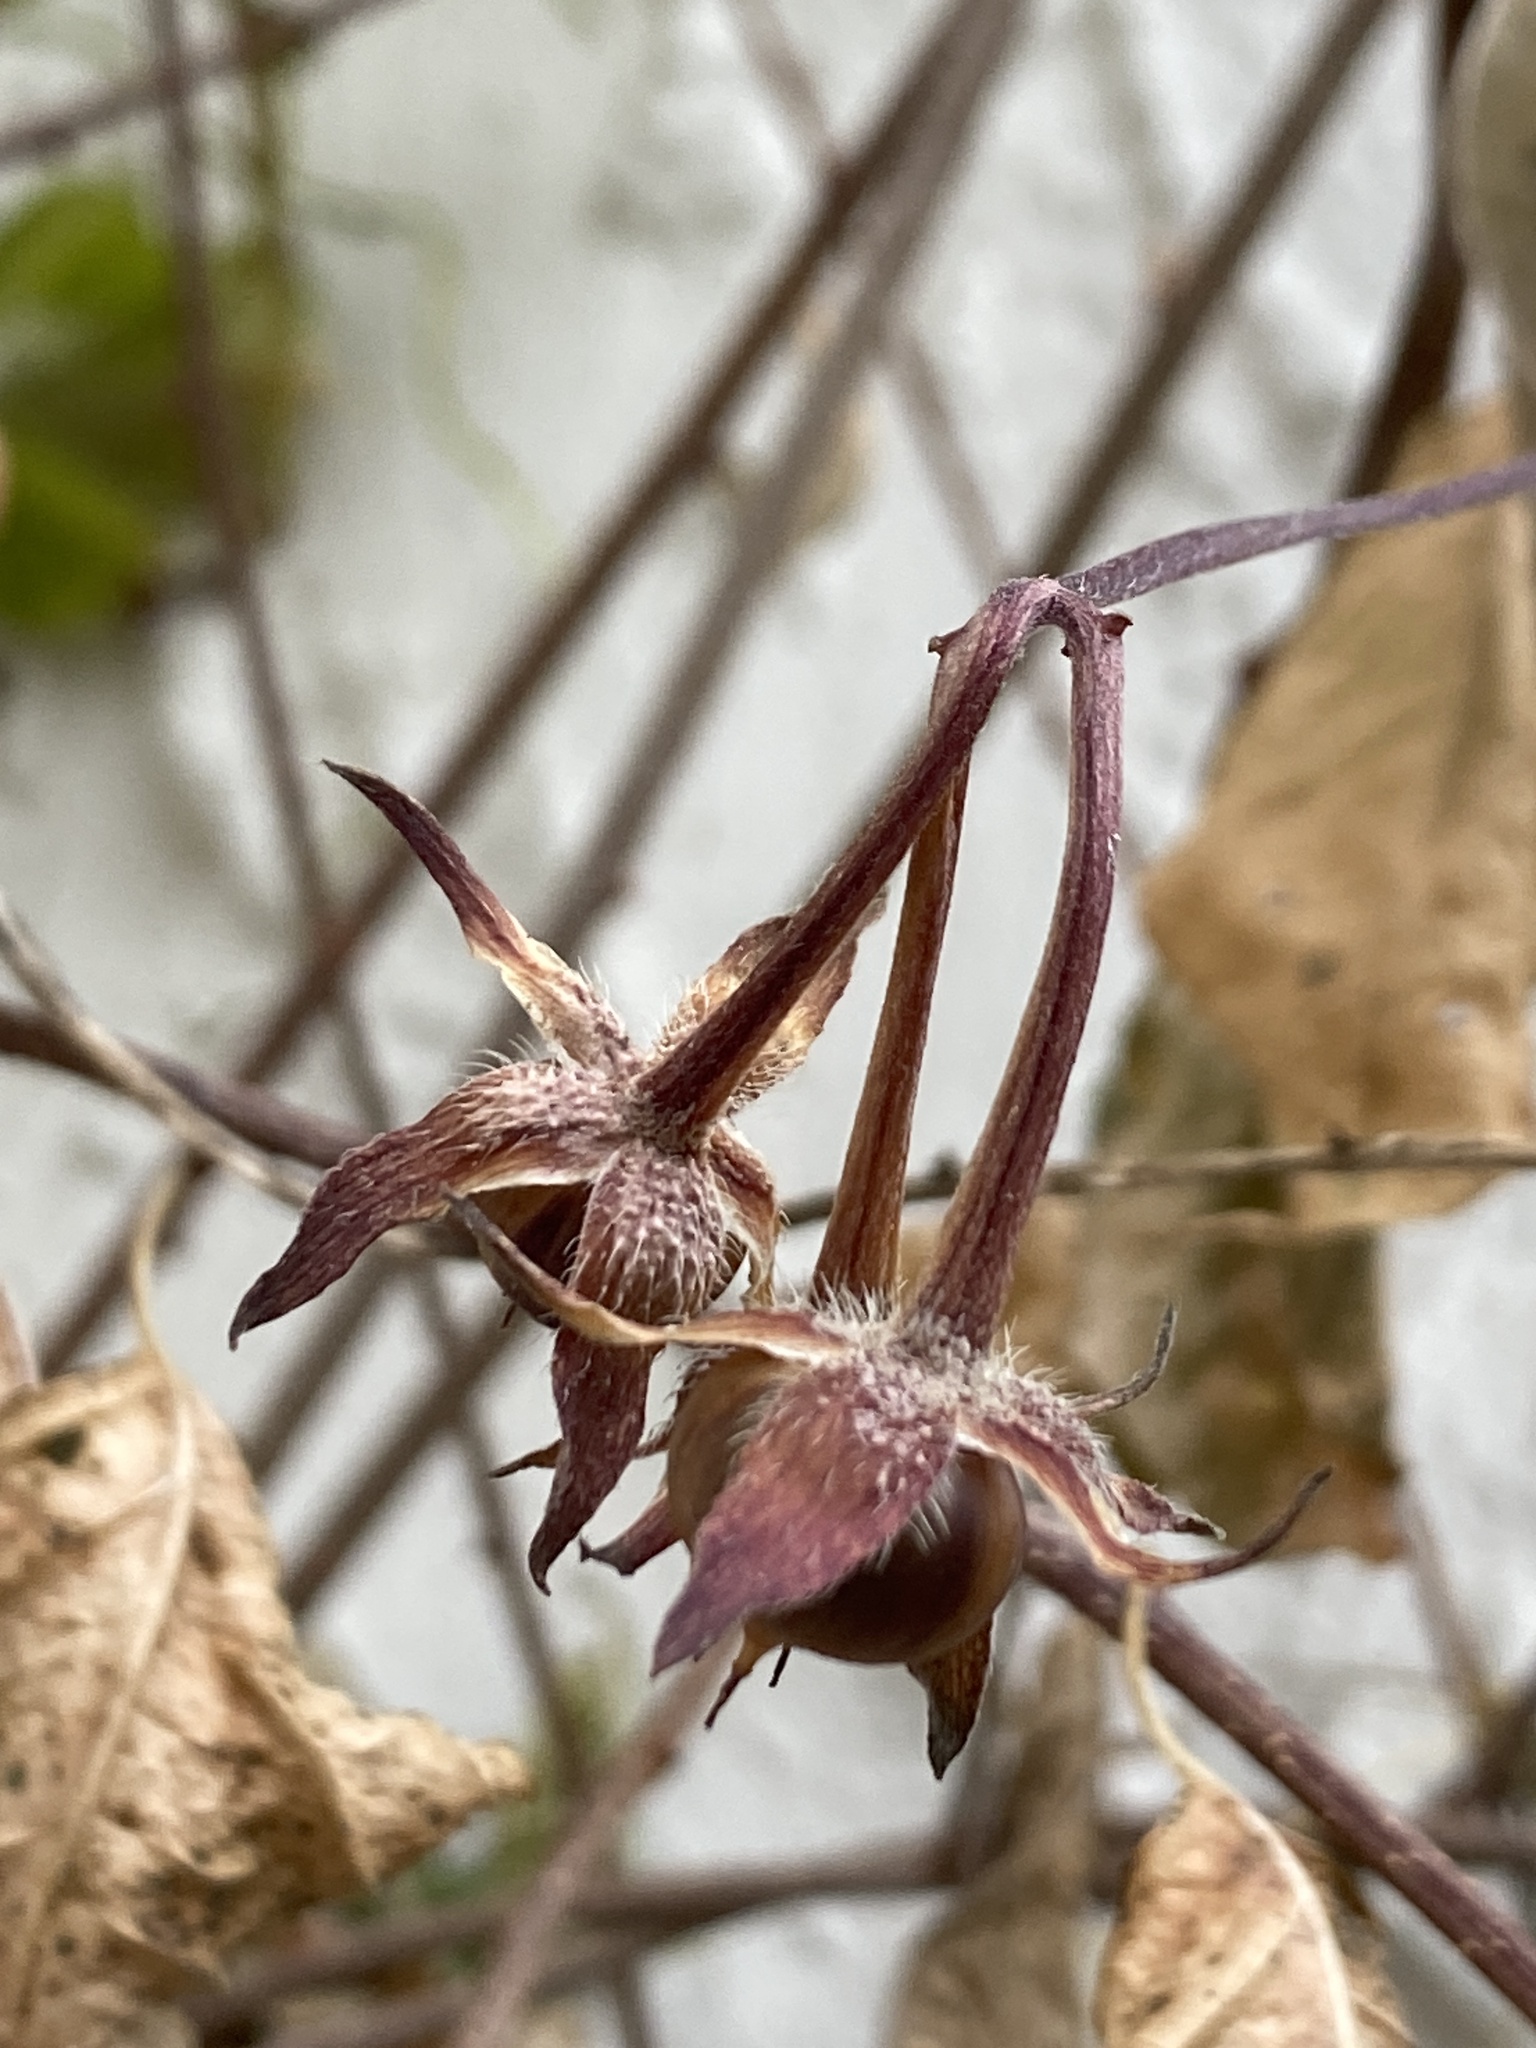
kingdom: Plantae
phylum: Tracheophyta
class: Magnoliopsida
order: Solanales
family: Convolvulaceae
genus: Ipomoea
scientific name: Ipomoea purpurea
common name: Common morning-glory
